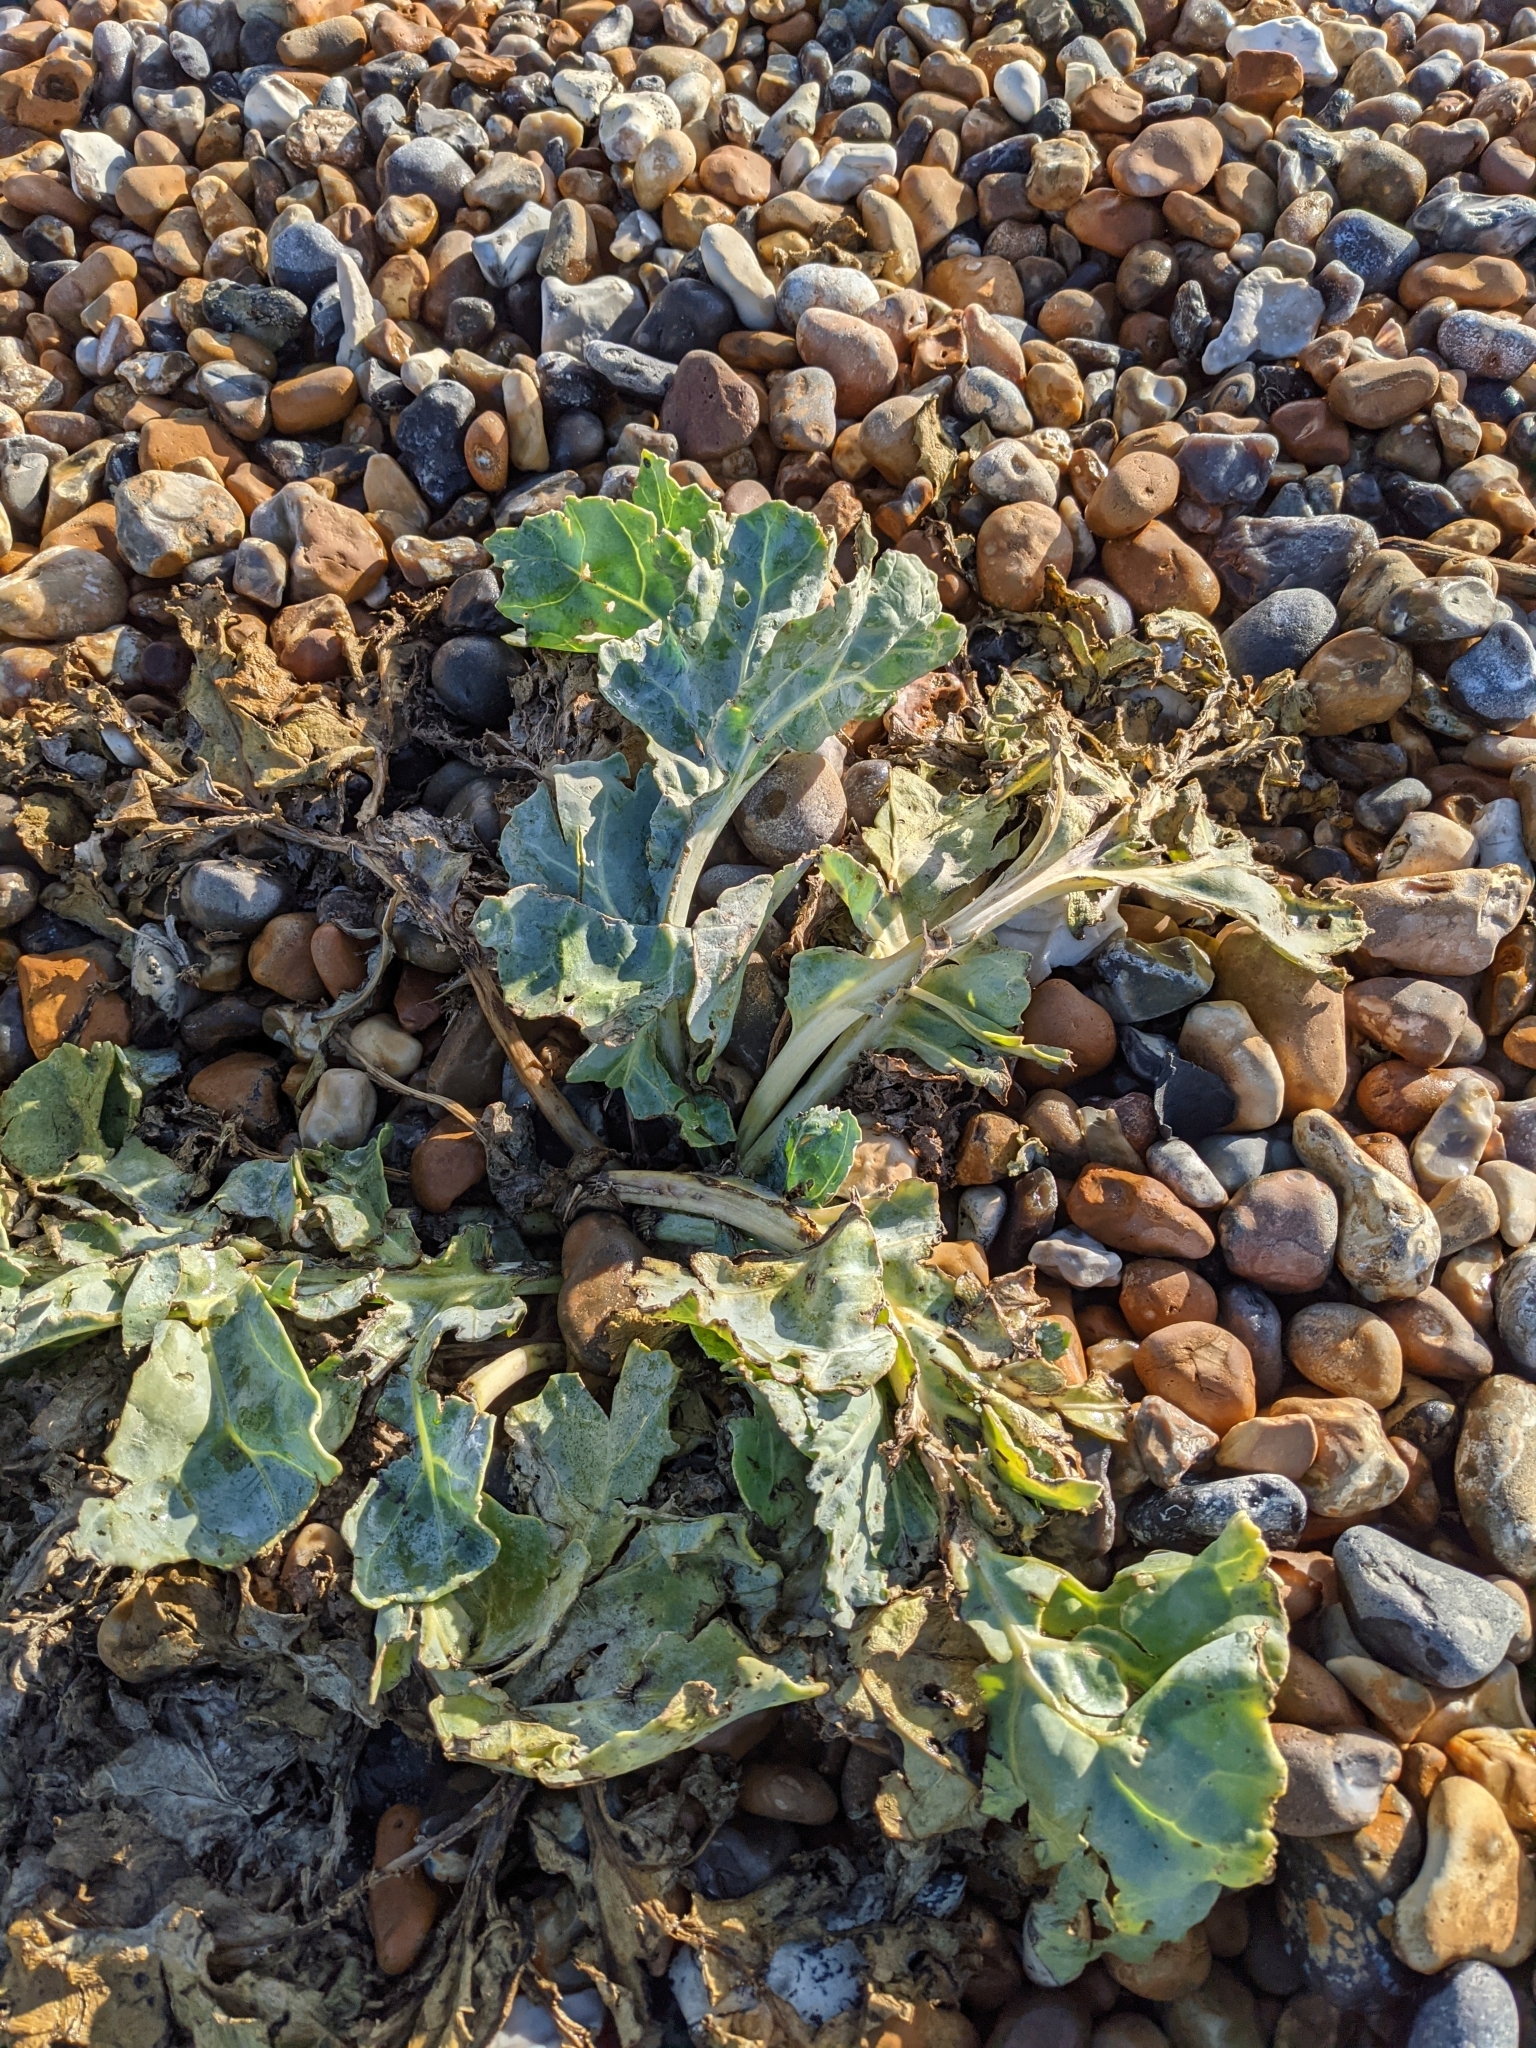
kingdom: Plantae
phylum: Tracheophyta
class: Magnoliopsida
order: Brassicales
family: Brassicaceae
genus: Crambe
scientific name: Crambe maritima
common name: Sea-kale
